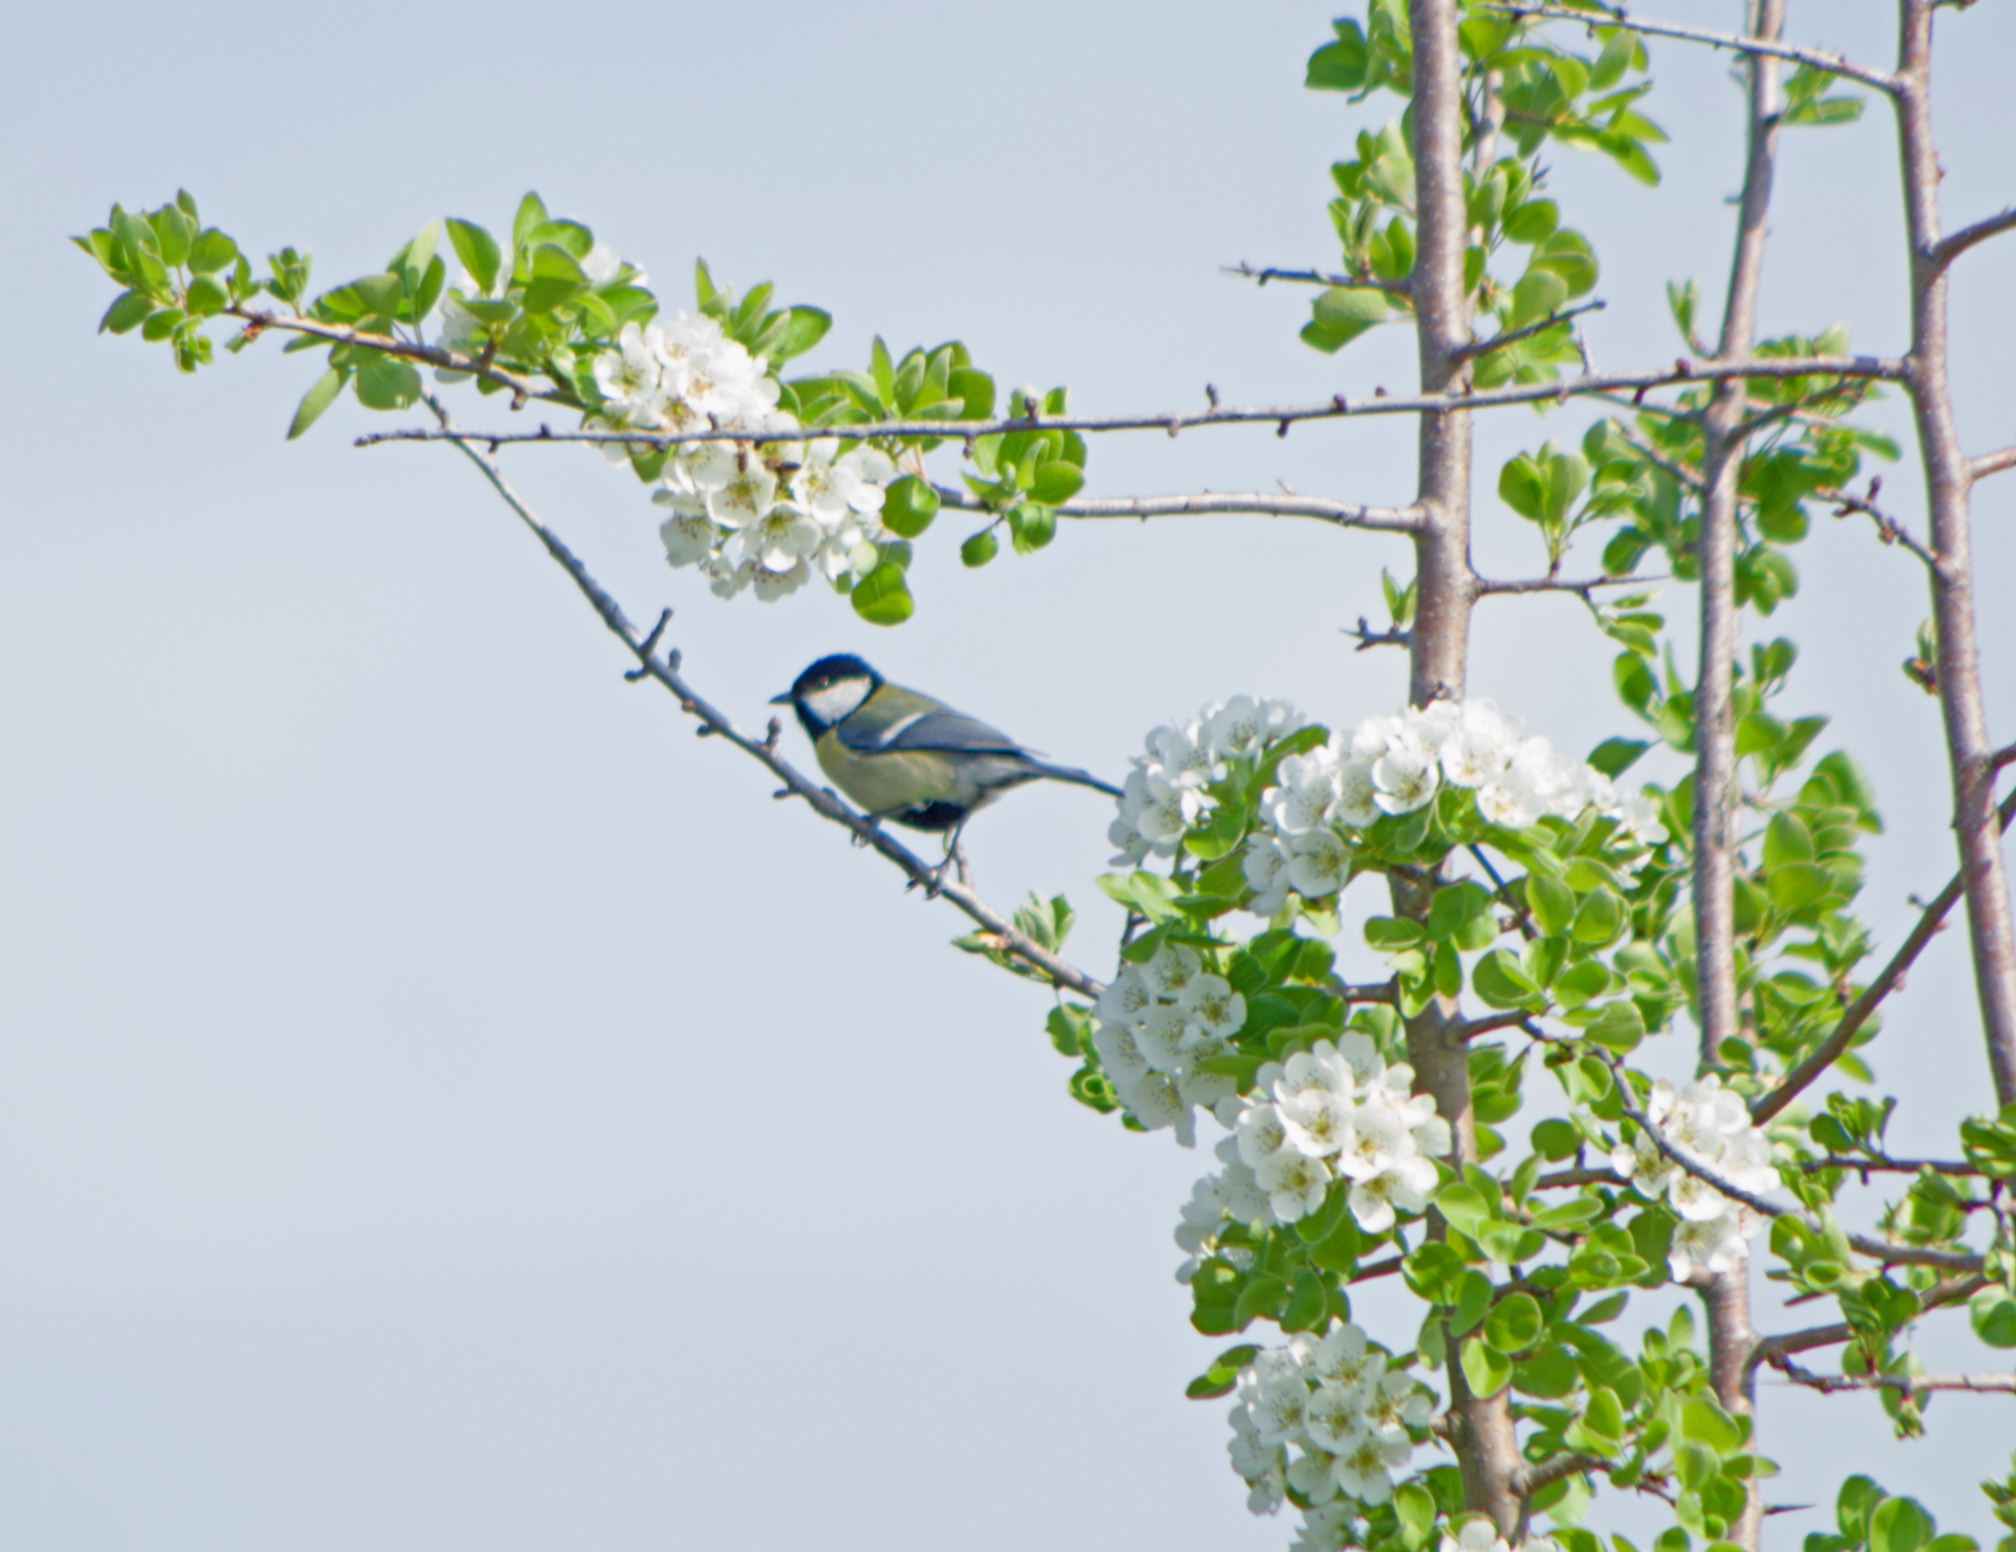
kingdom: Animalia
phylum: Chordata
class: Aves
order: Passeriformes
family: Paridae
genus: Parus
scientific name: Parus major
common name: Great tit
